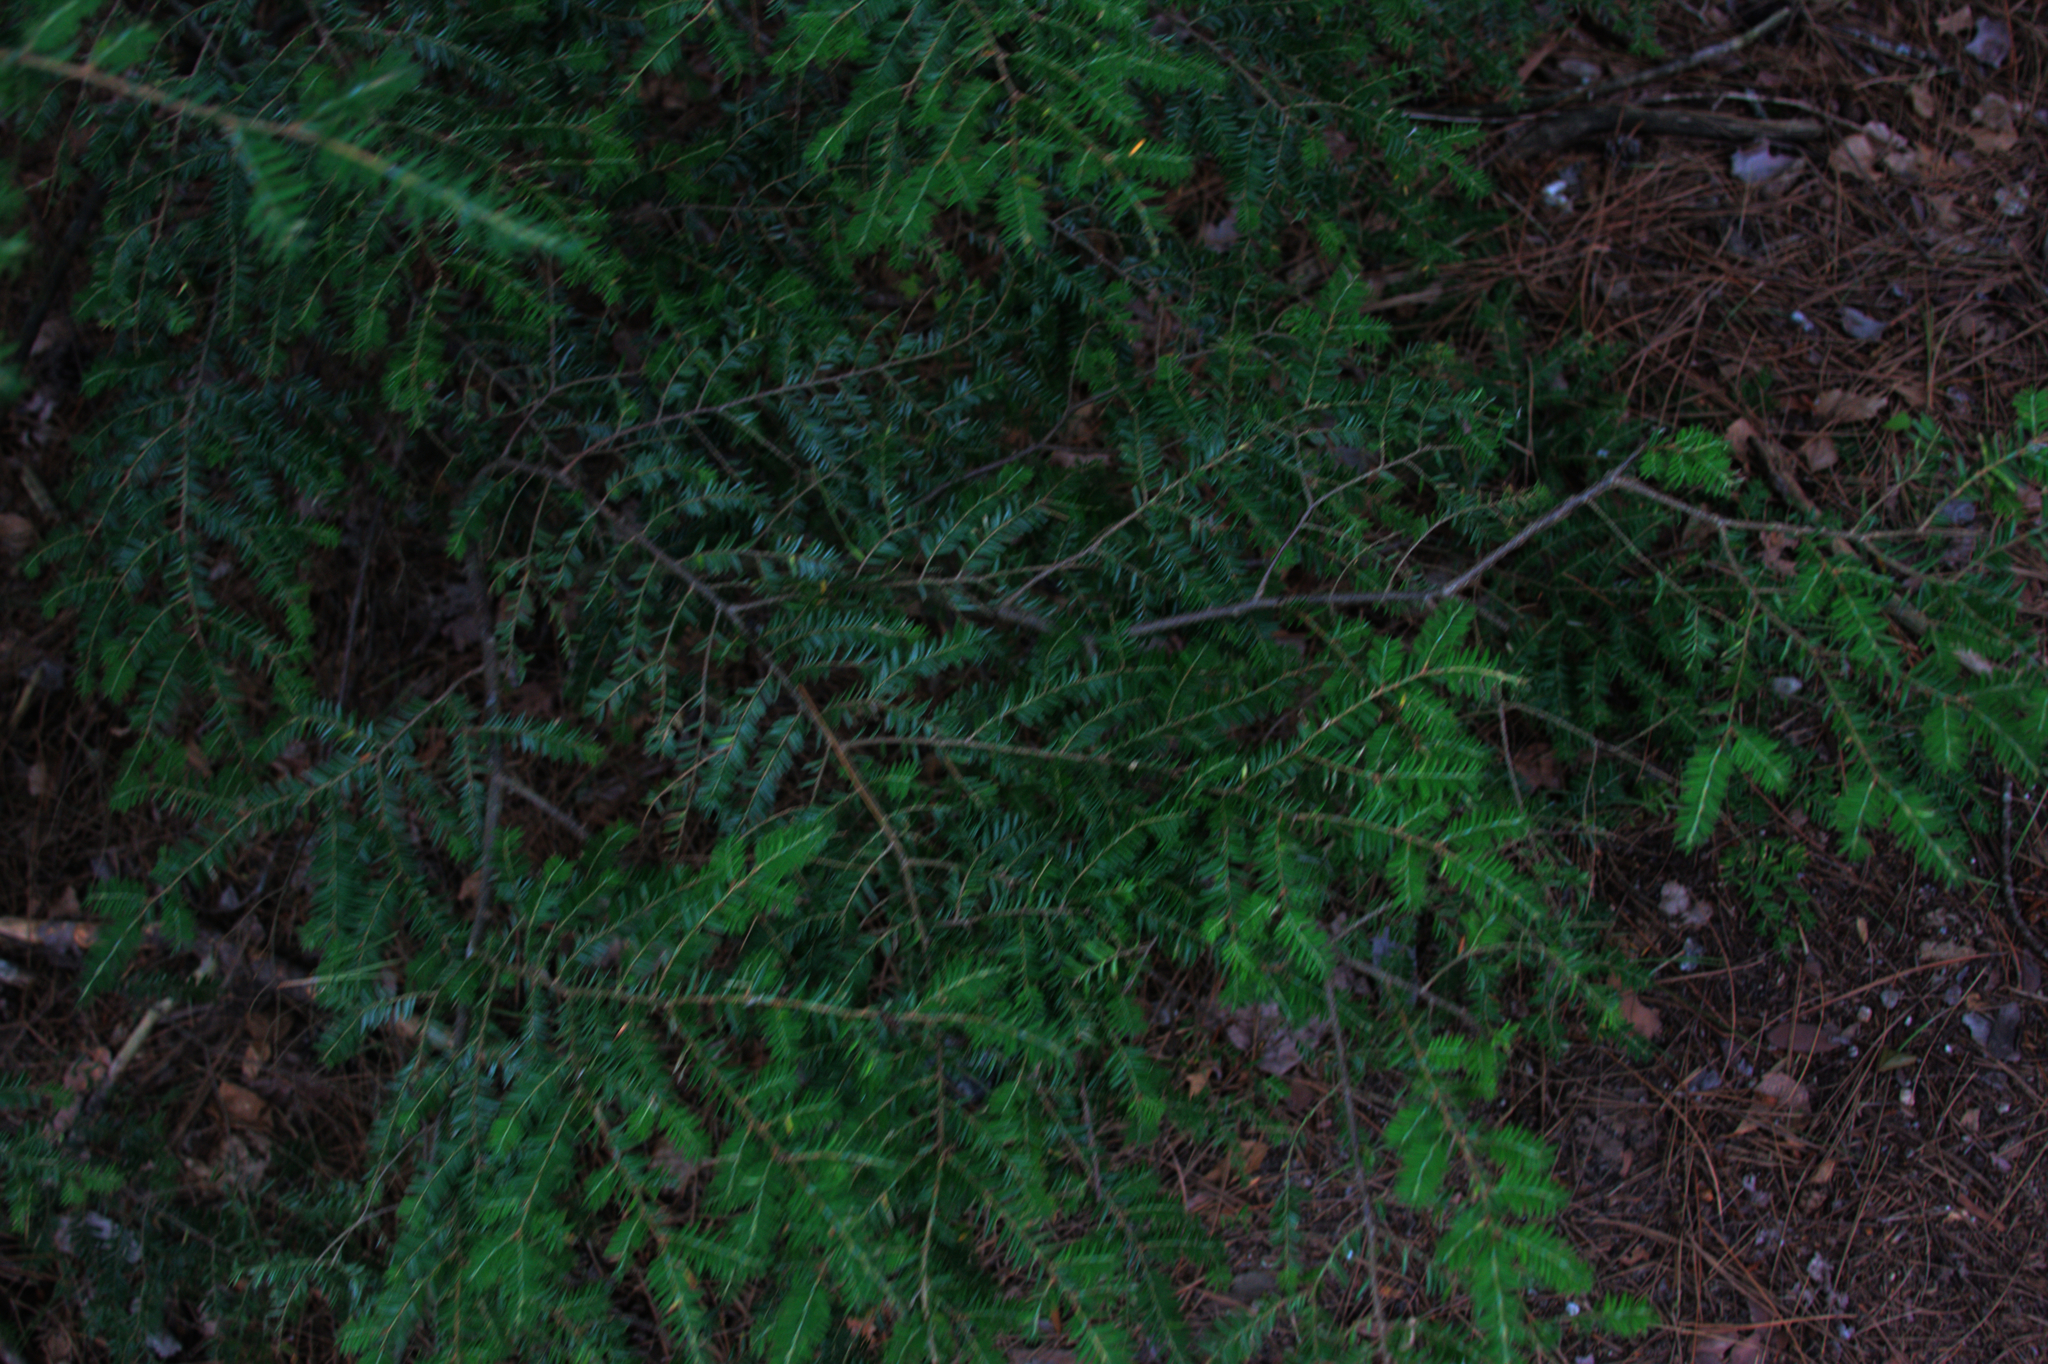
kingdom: Plantae
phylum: Tracheophyta
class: Pinopsida
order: Pinales
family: Pinaceae
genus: Tsuga
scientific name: Tsuga canadensis
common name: Eastern hemlock
